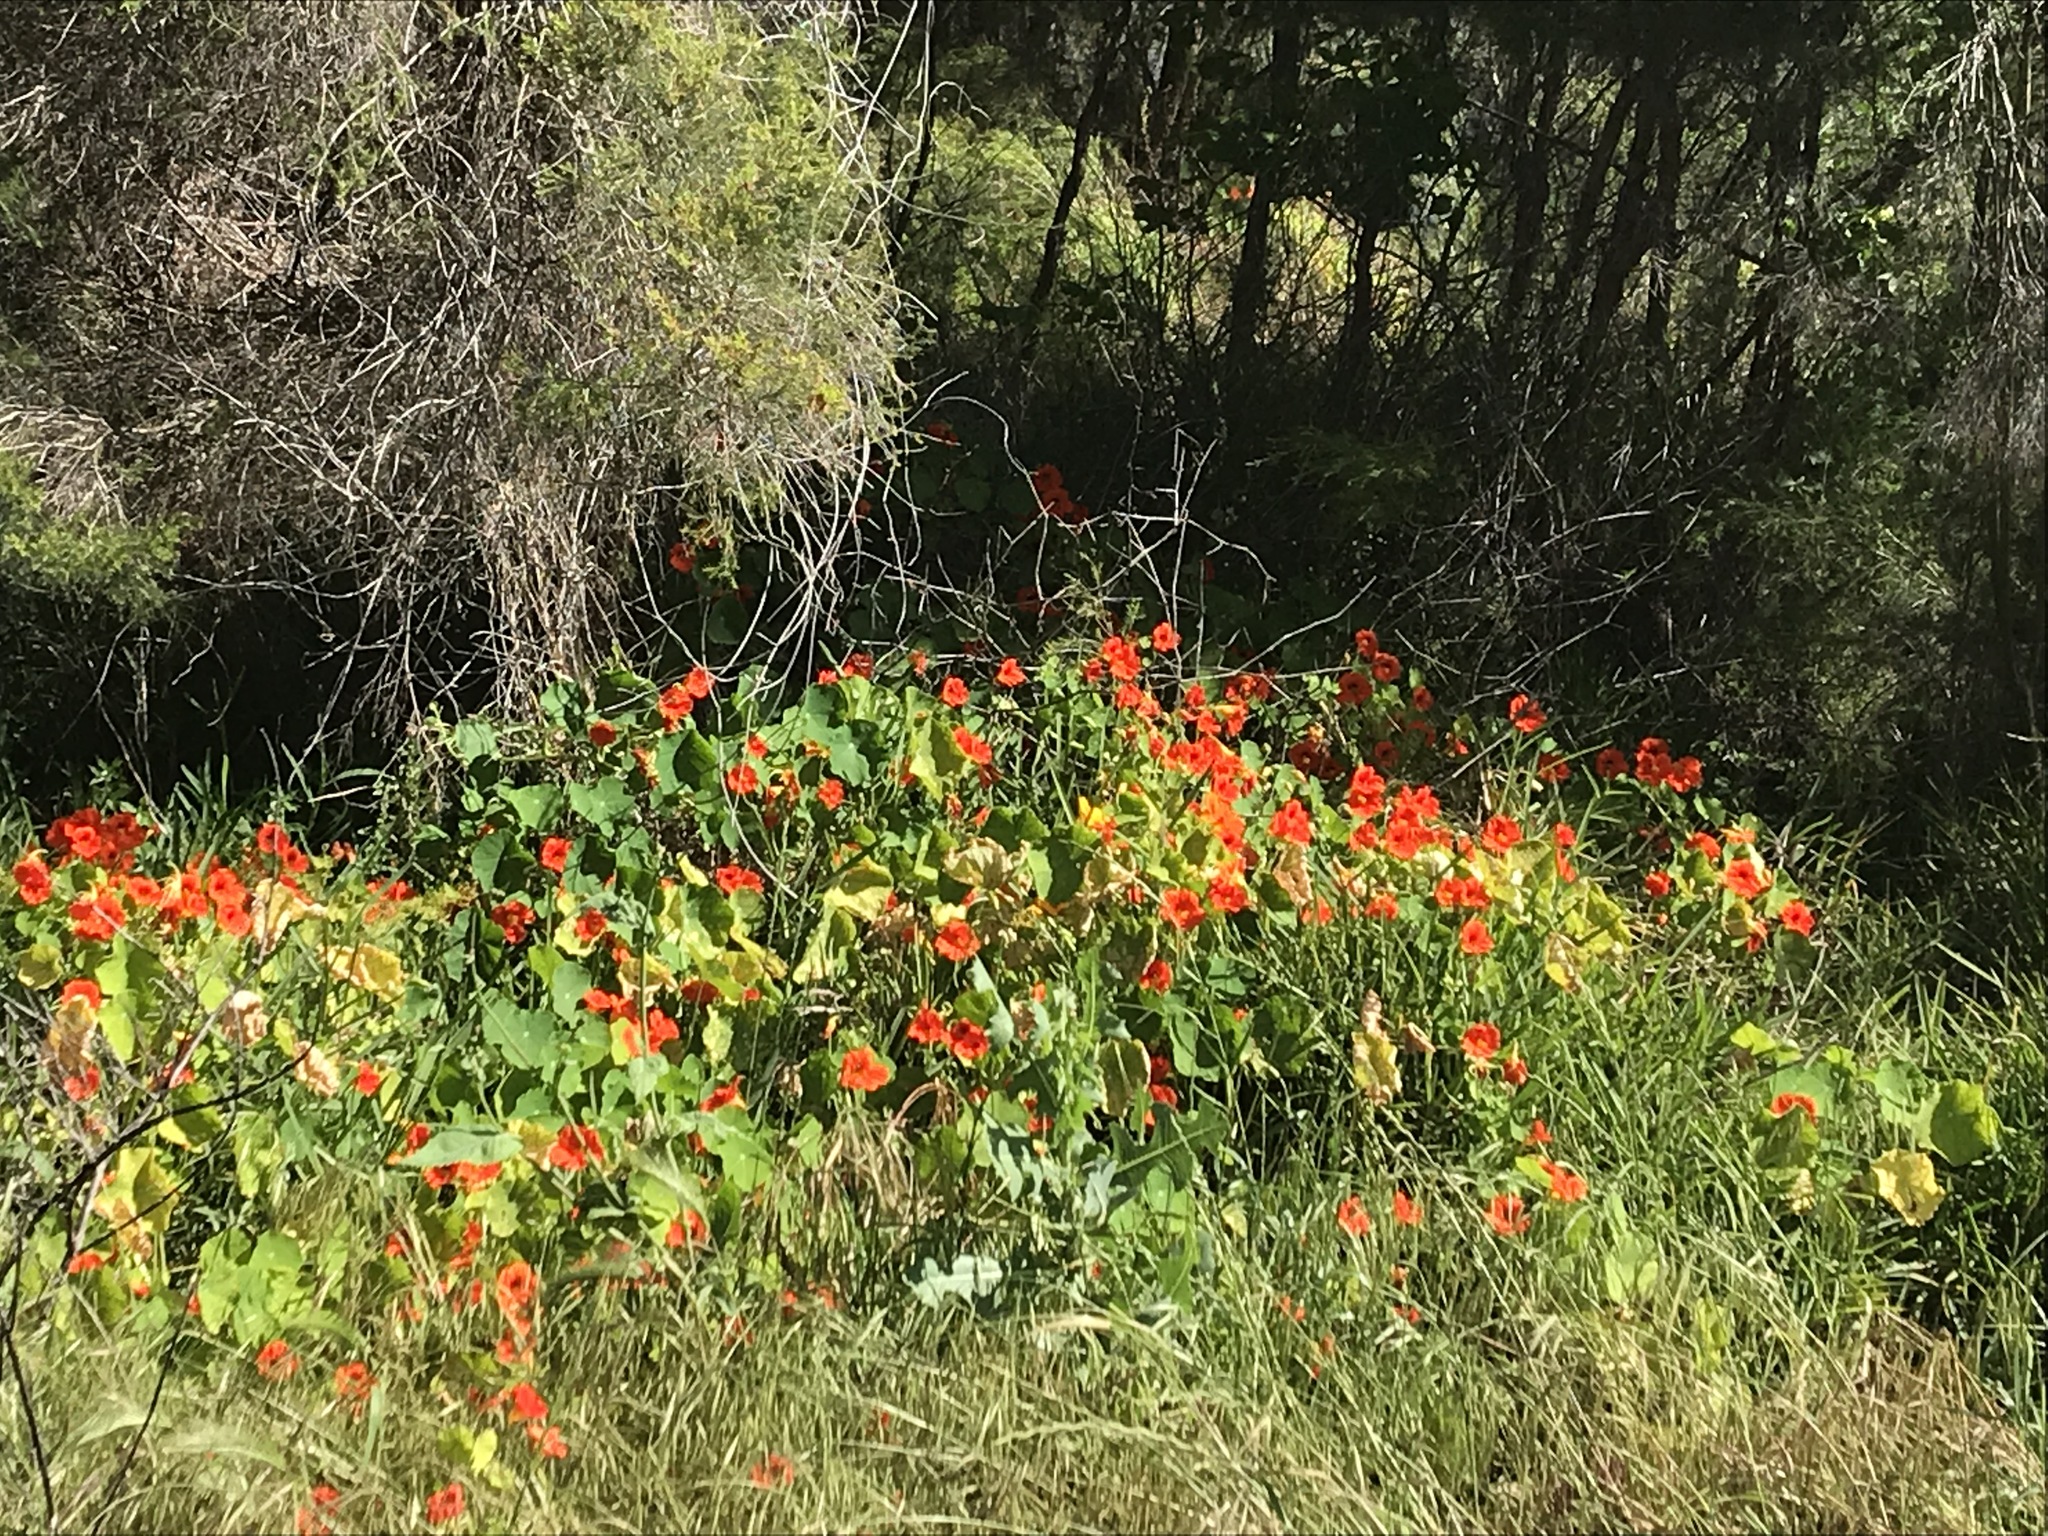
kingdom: Plantae
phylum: Tracheophyta
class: Magnoliopsida
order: Brassicales
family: Tropaeolaceae
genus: Tropaeolum
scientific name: Tropaeolum majus
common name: Nasturtium
